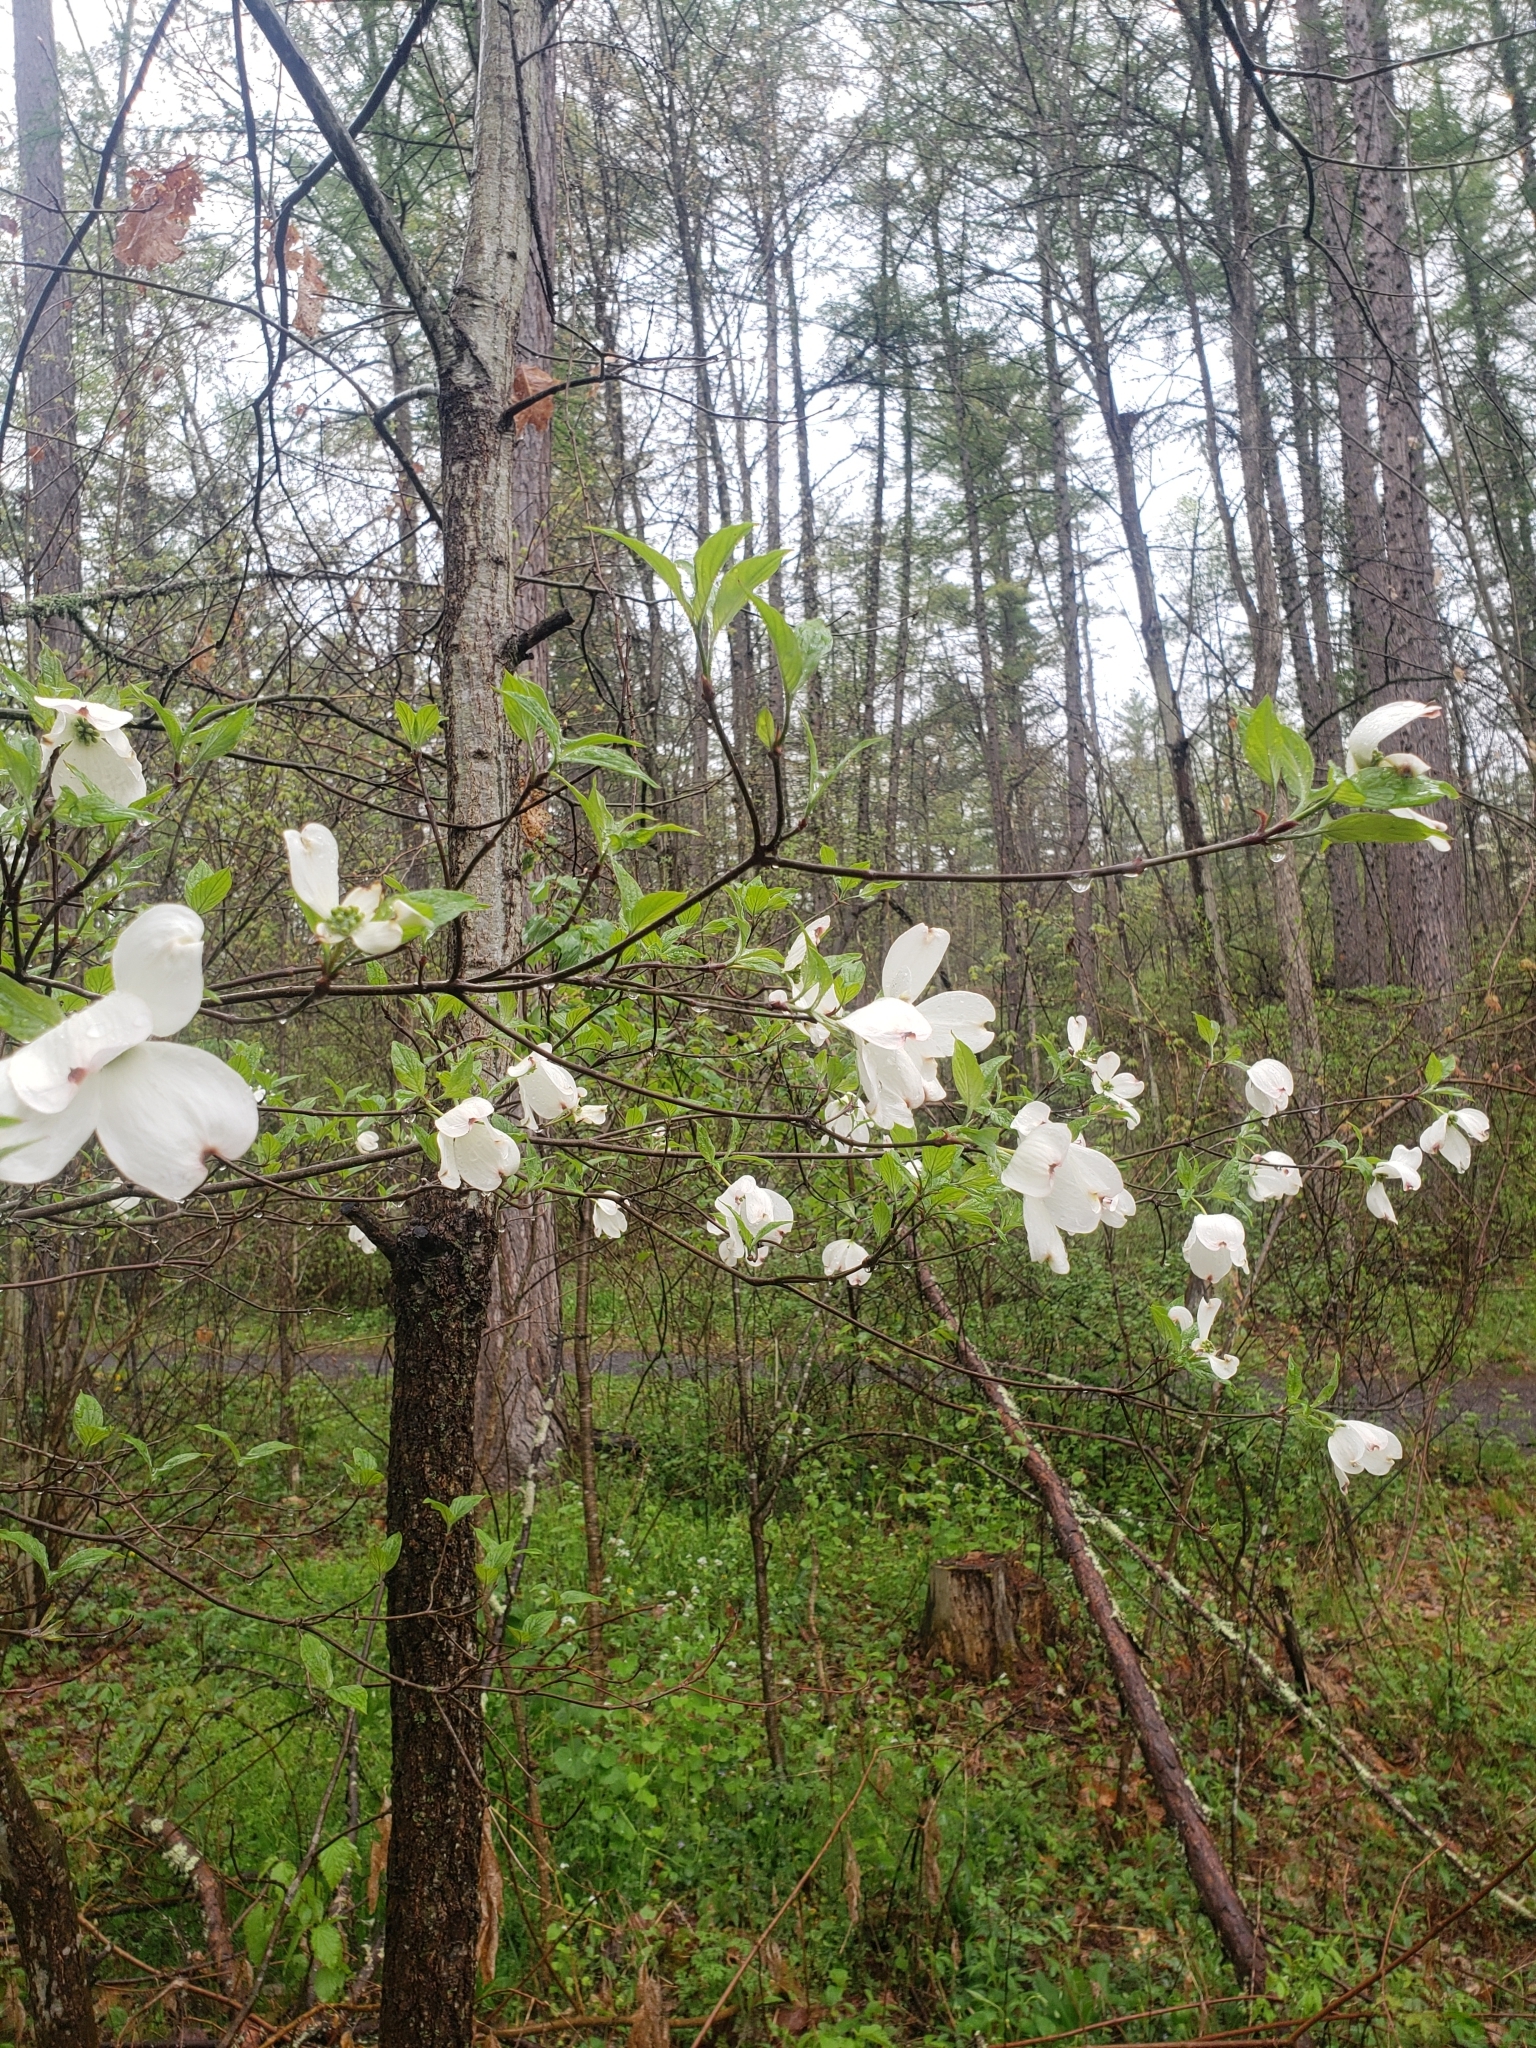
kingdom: Plantae
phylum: Tracheophyta
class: Magnoliopsida
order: Cornales
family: Cornaceae
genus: Cornus
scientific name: Cornus florida
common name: Flowering dogwood
